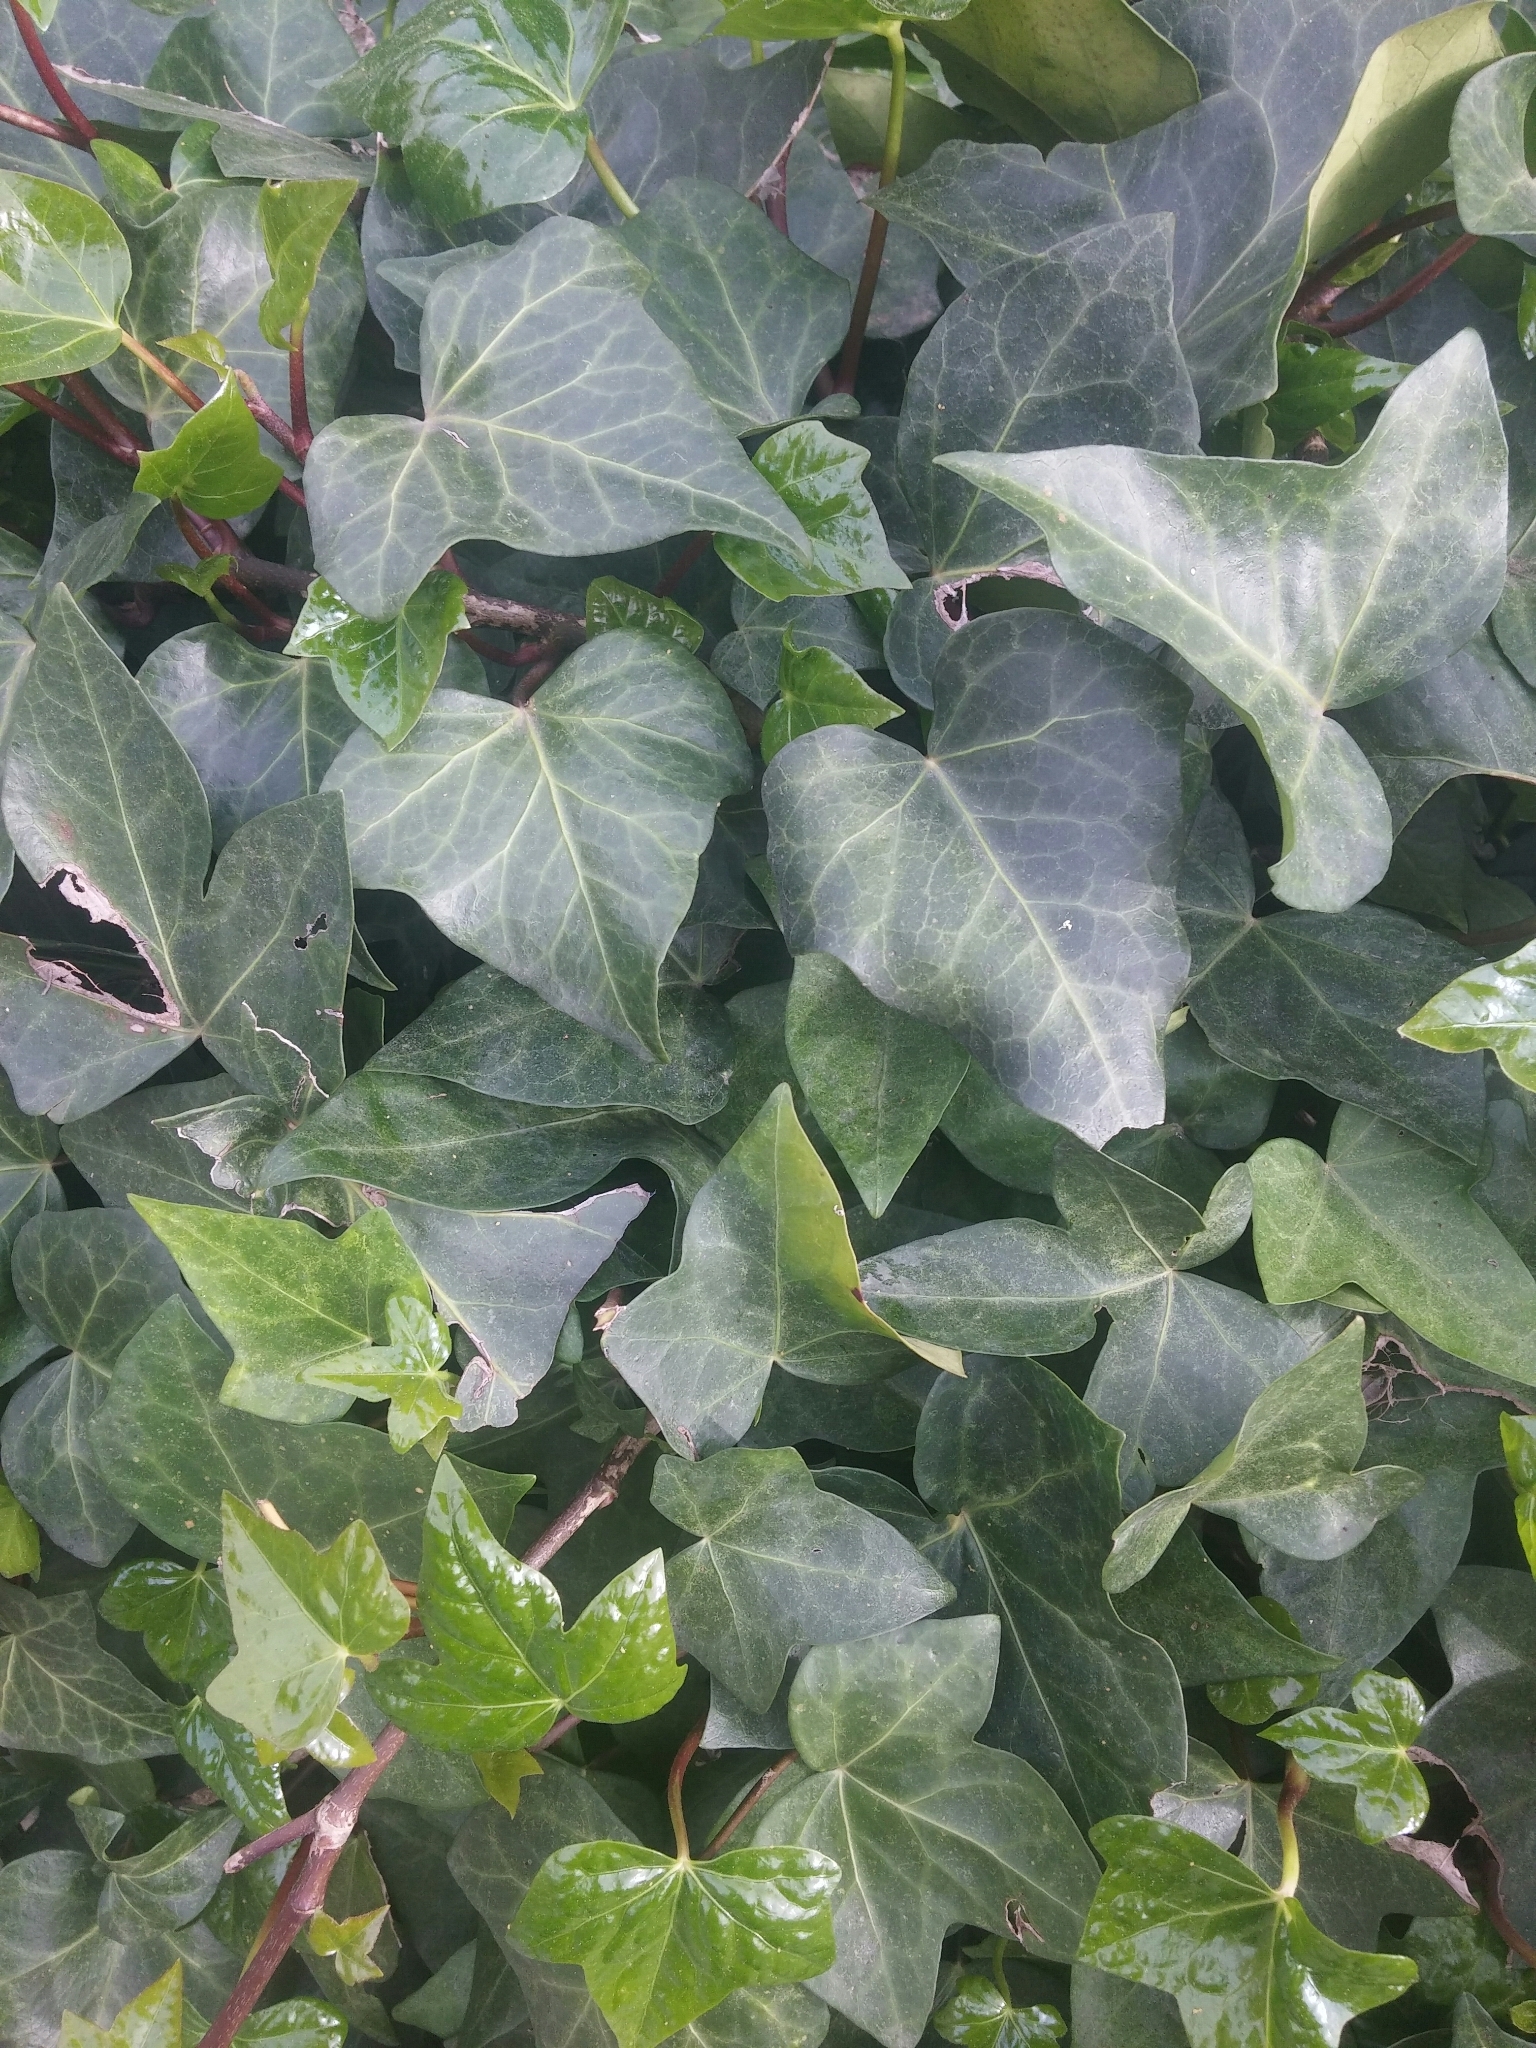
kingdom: Plantae
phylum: Tracheophyta
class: Magnoliopsida
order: Apiales
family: Araliaceae
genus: Hedera
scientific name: Hedera helix
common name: Ivy
